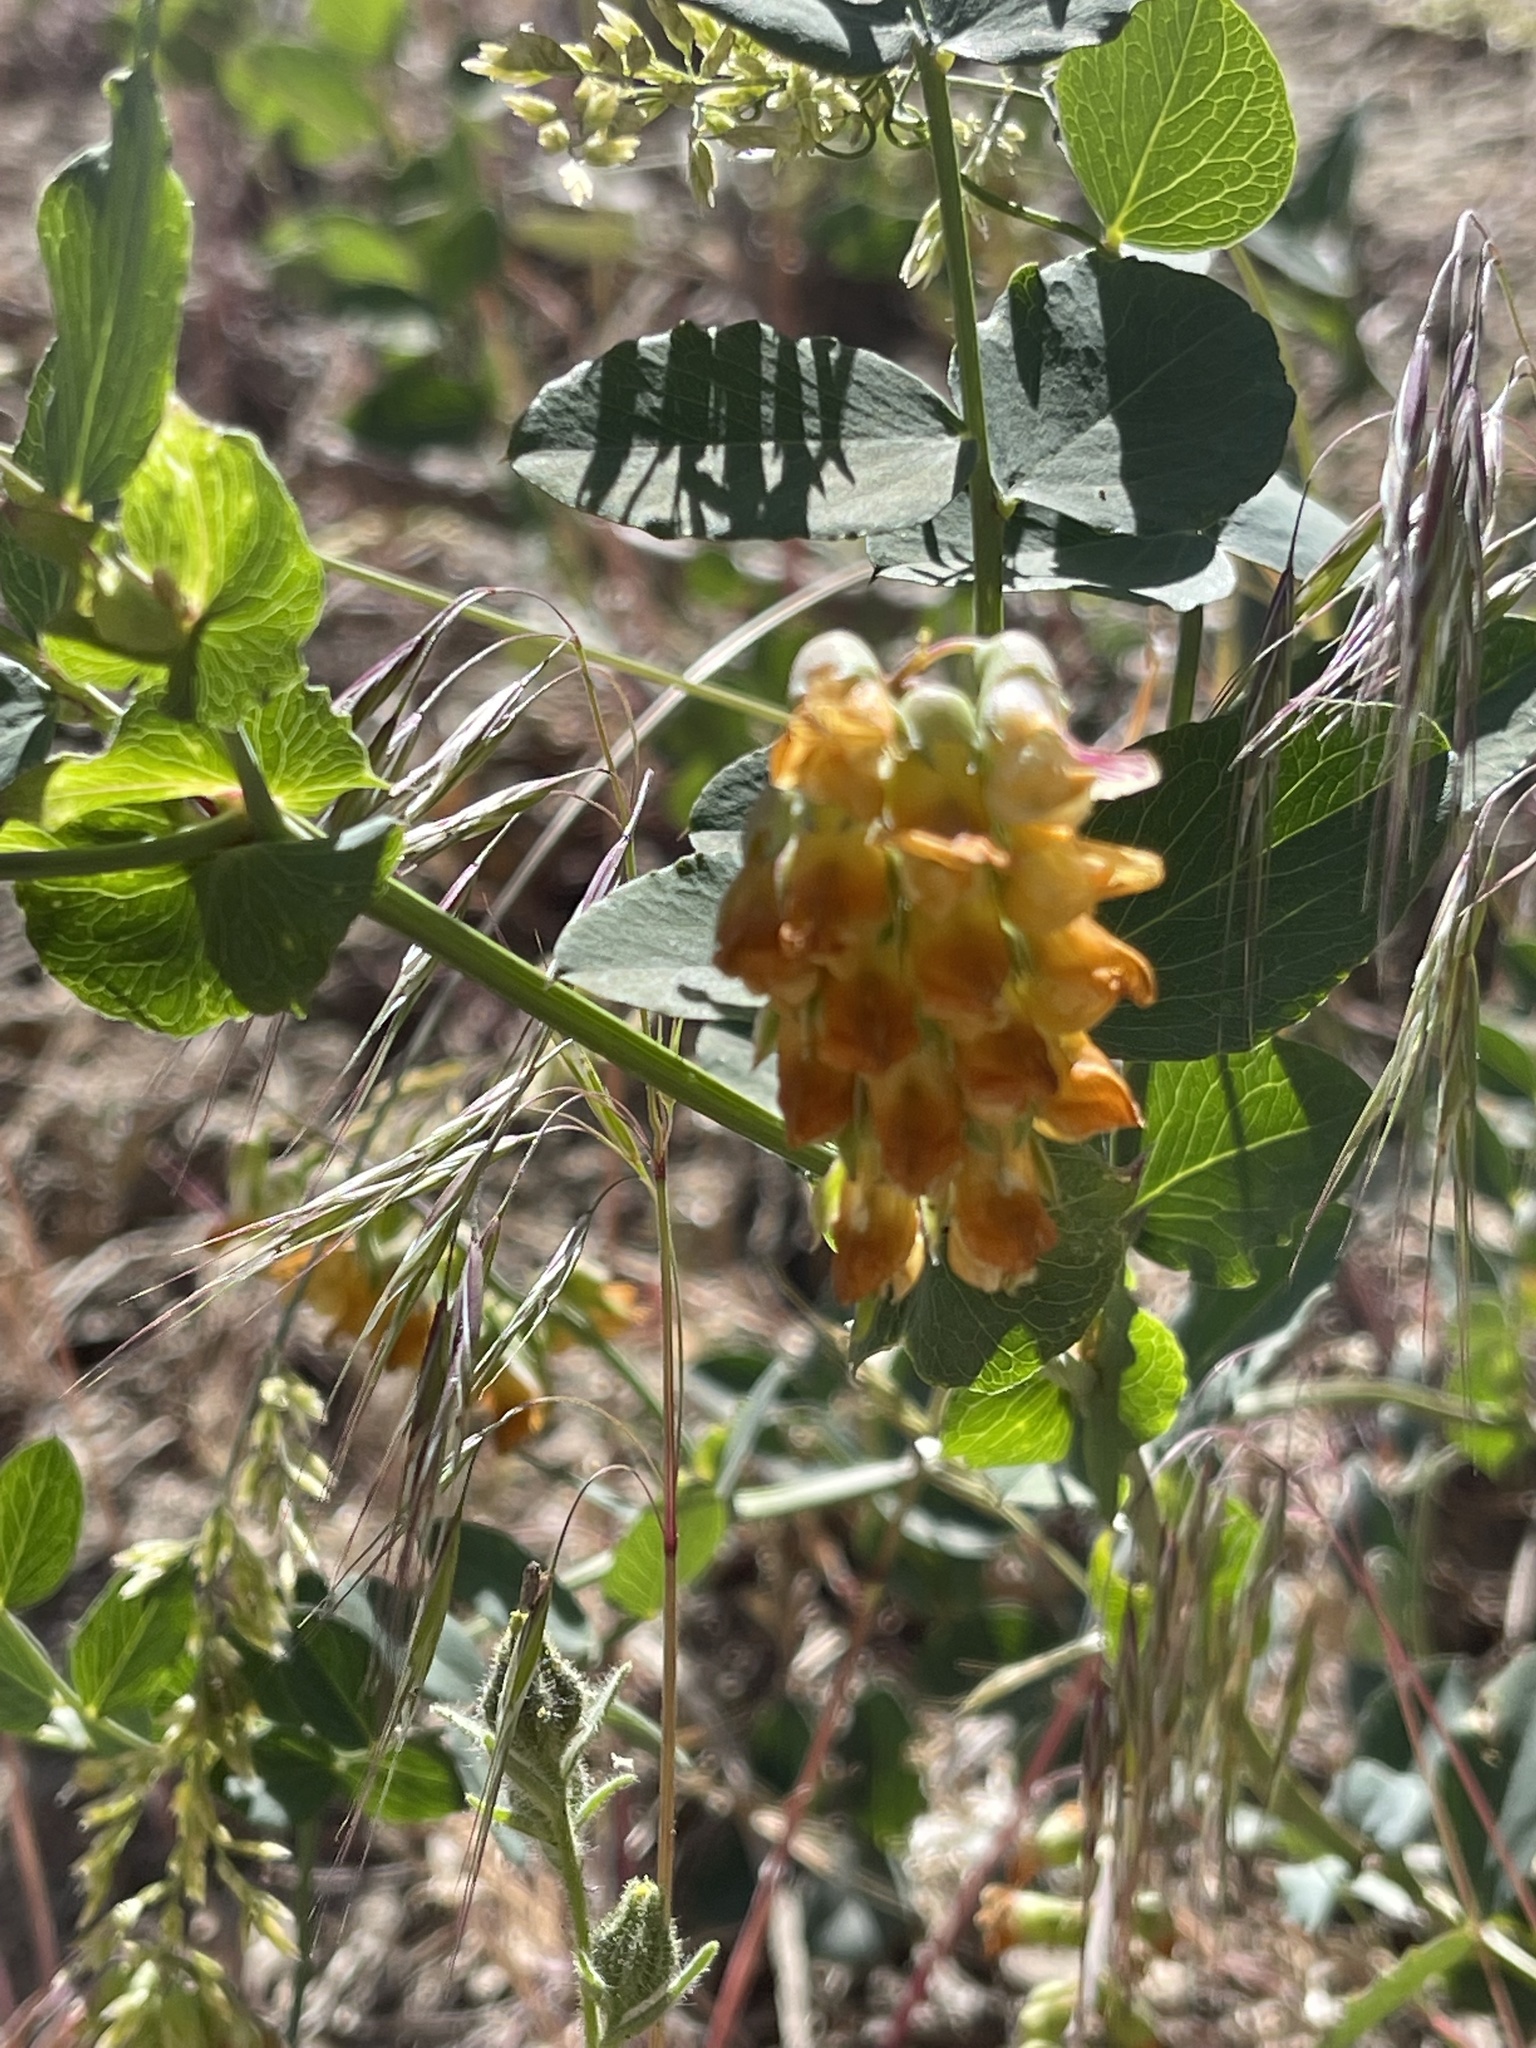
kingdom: Plantae
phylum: Tracheophyta
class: Magnoliopsida
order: Fabales
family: Fabaceae
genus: Lathyrus
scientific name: Lathyrus sulphureus
